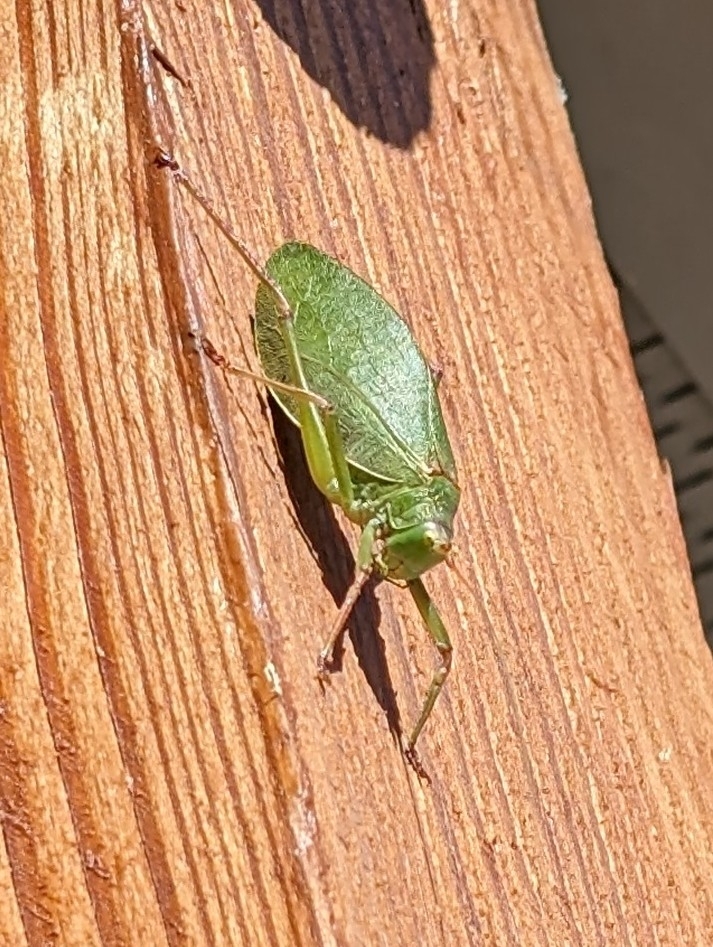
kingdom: Animalia
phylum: Arthropoda
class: Insecta
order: Orthoptera
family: Tettigoniidae
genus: Pterophylla
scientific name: Pterophylla camellifolia
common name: Common true katydid
